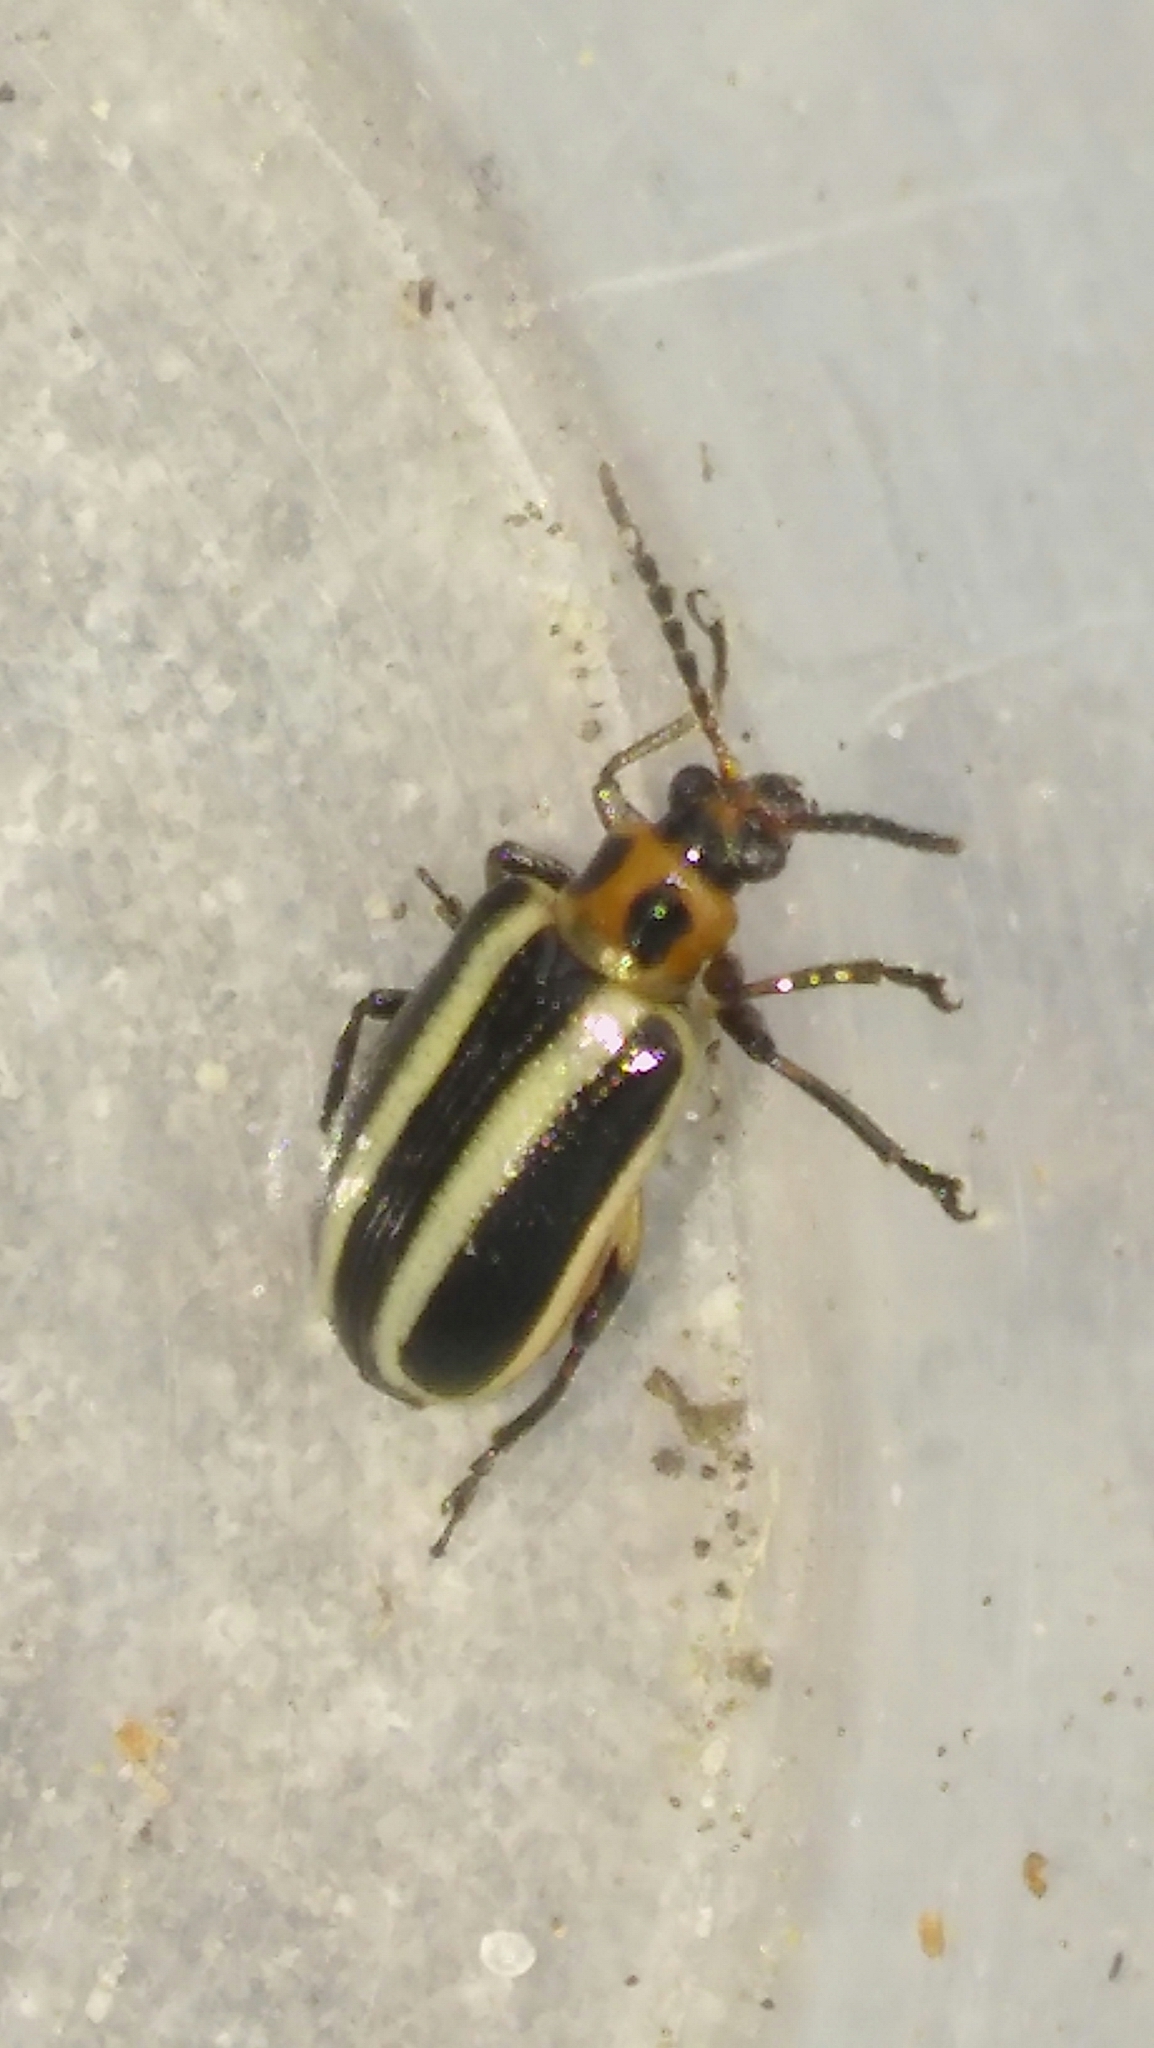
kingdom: Animalia
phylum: Arthropoda
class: Insecta
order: Coleoptera
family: Chrysomelidae
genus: Lema
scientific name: Lema bilineata
